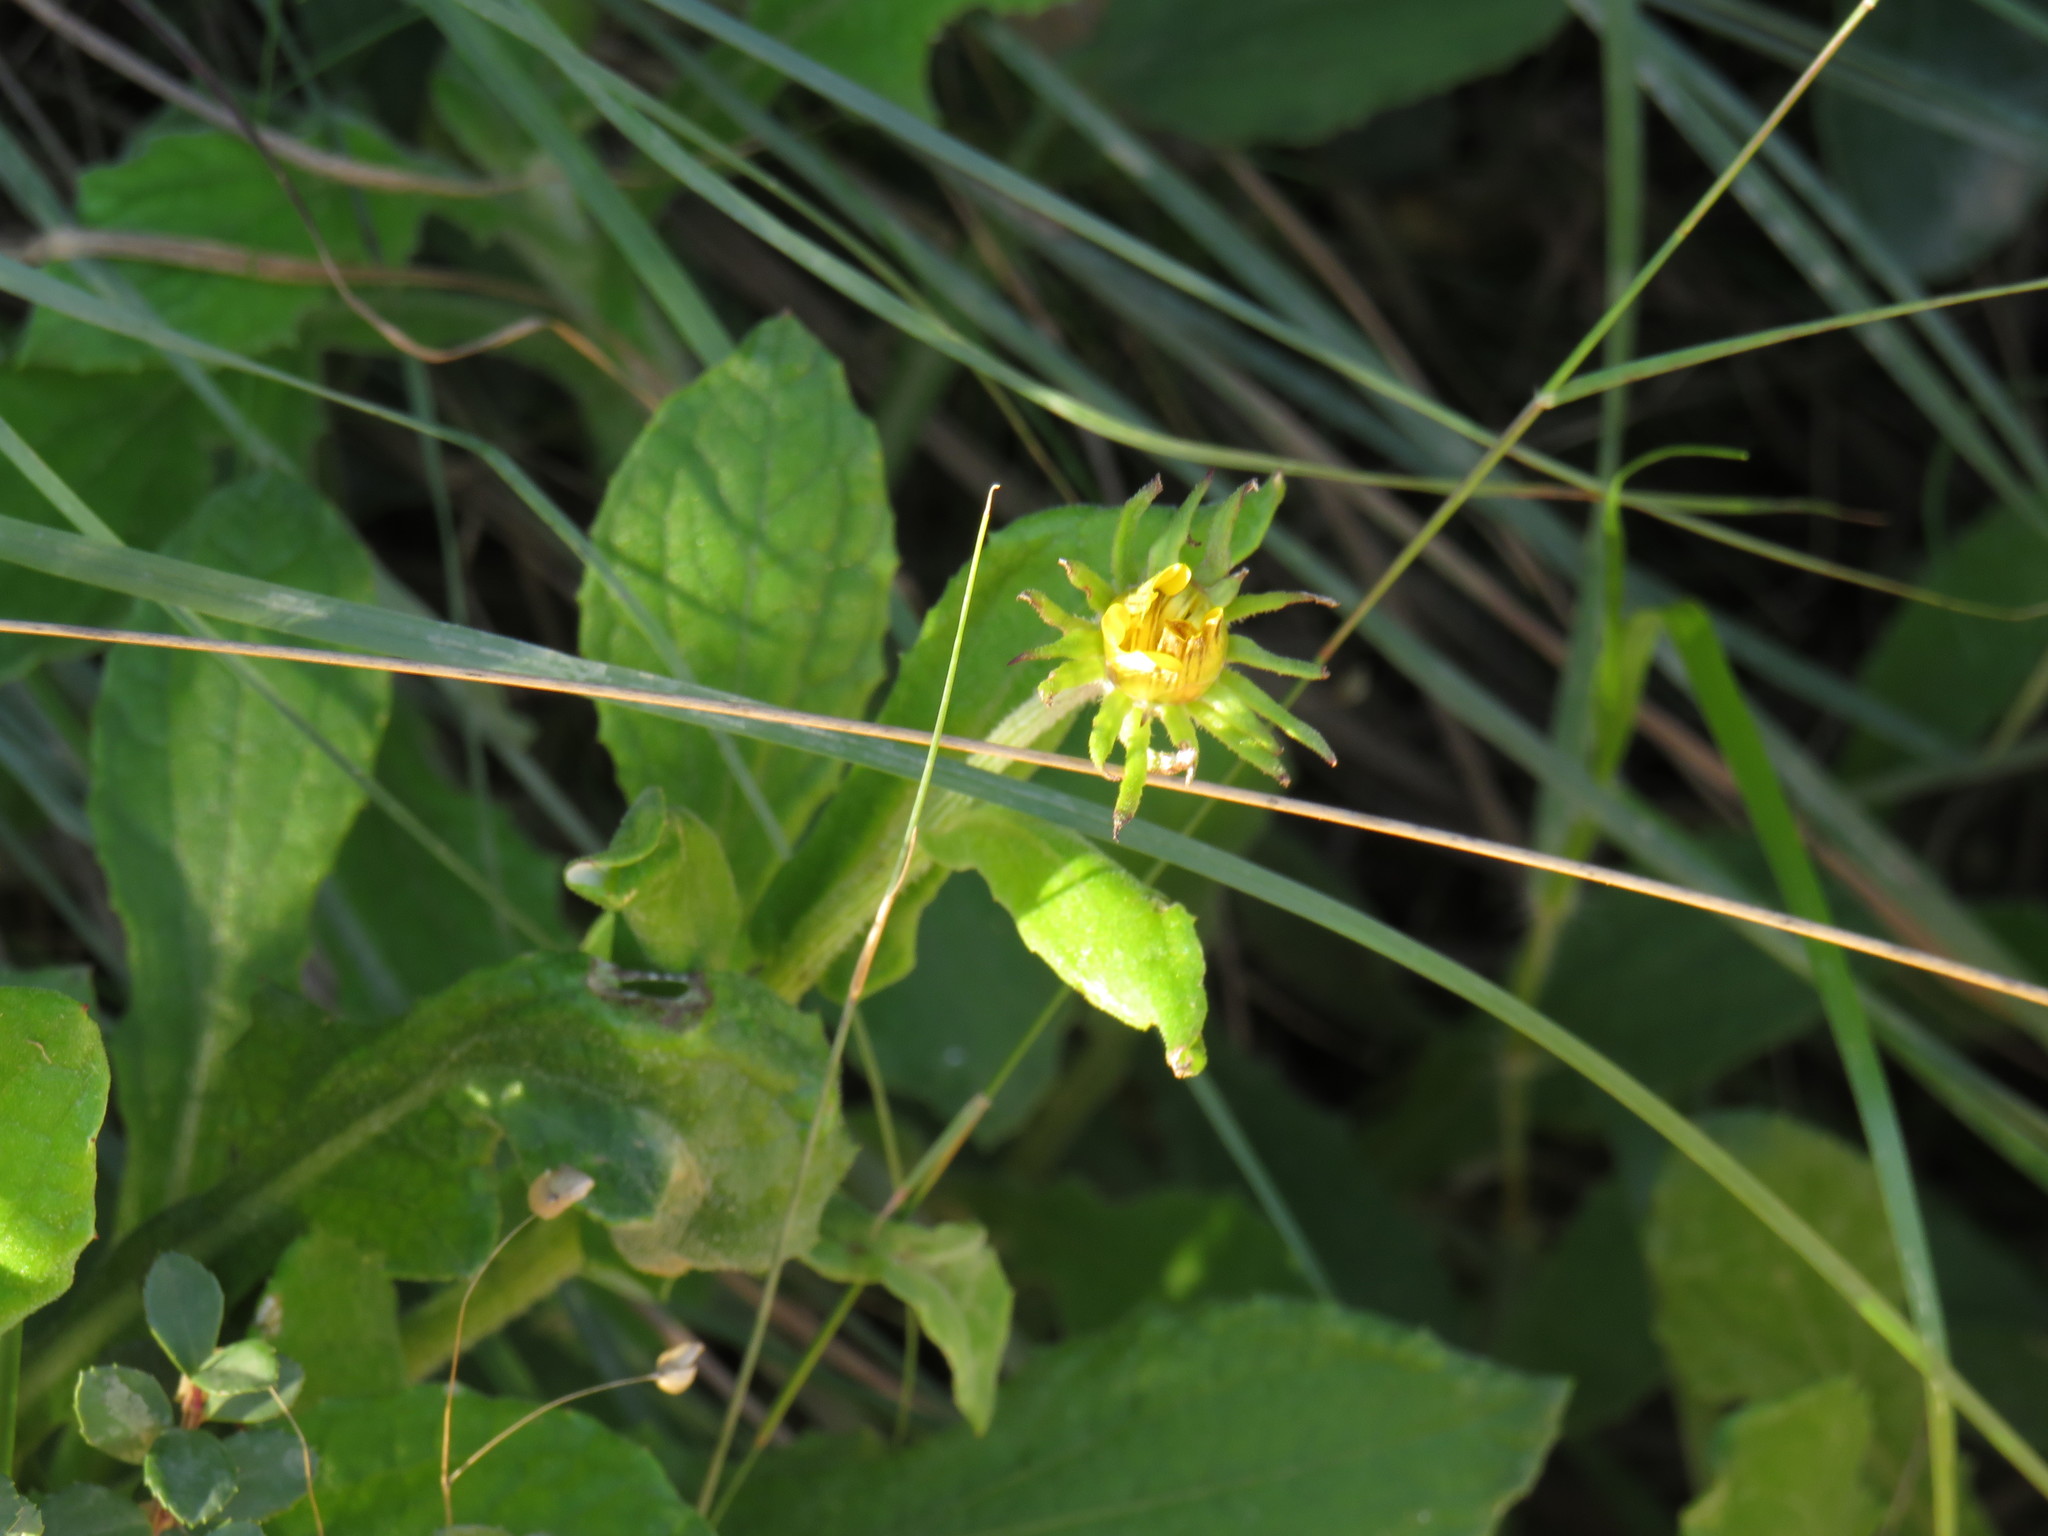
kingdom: Plantae
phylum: Tracheophyta
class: Magnoliopsida
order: Asterales
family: Asteraceae
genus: Arctotis
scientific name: Arctotis scabra
